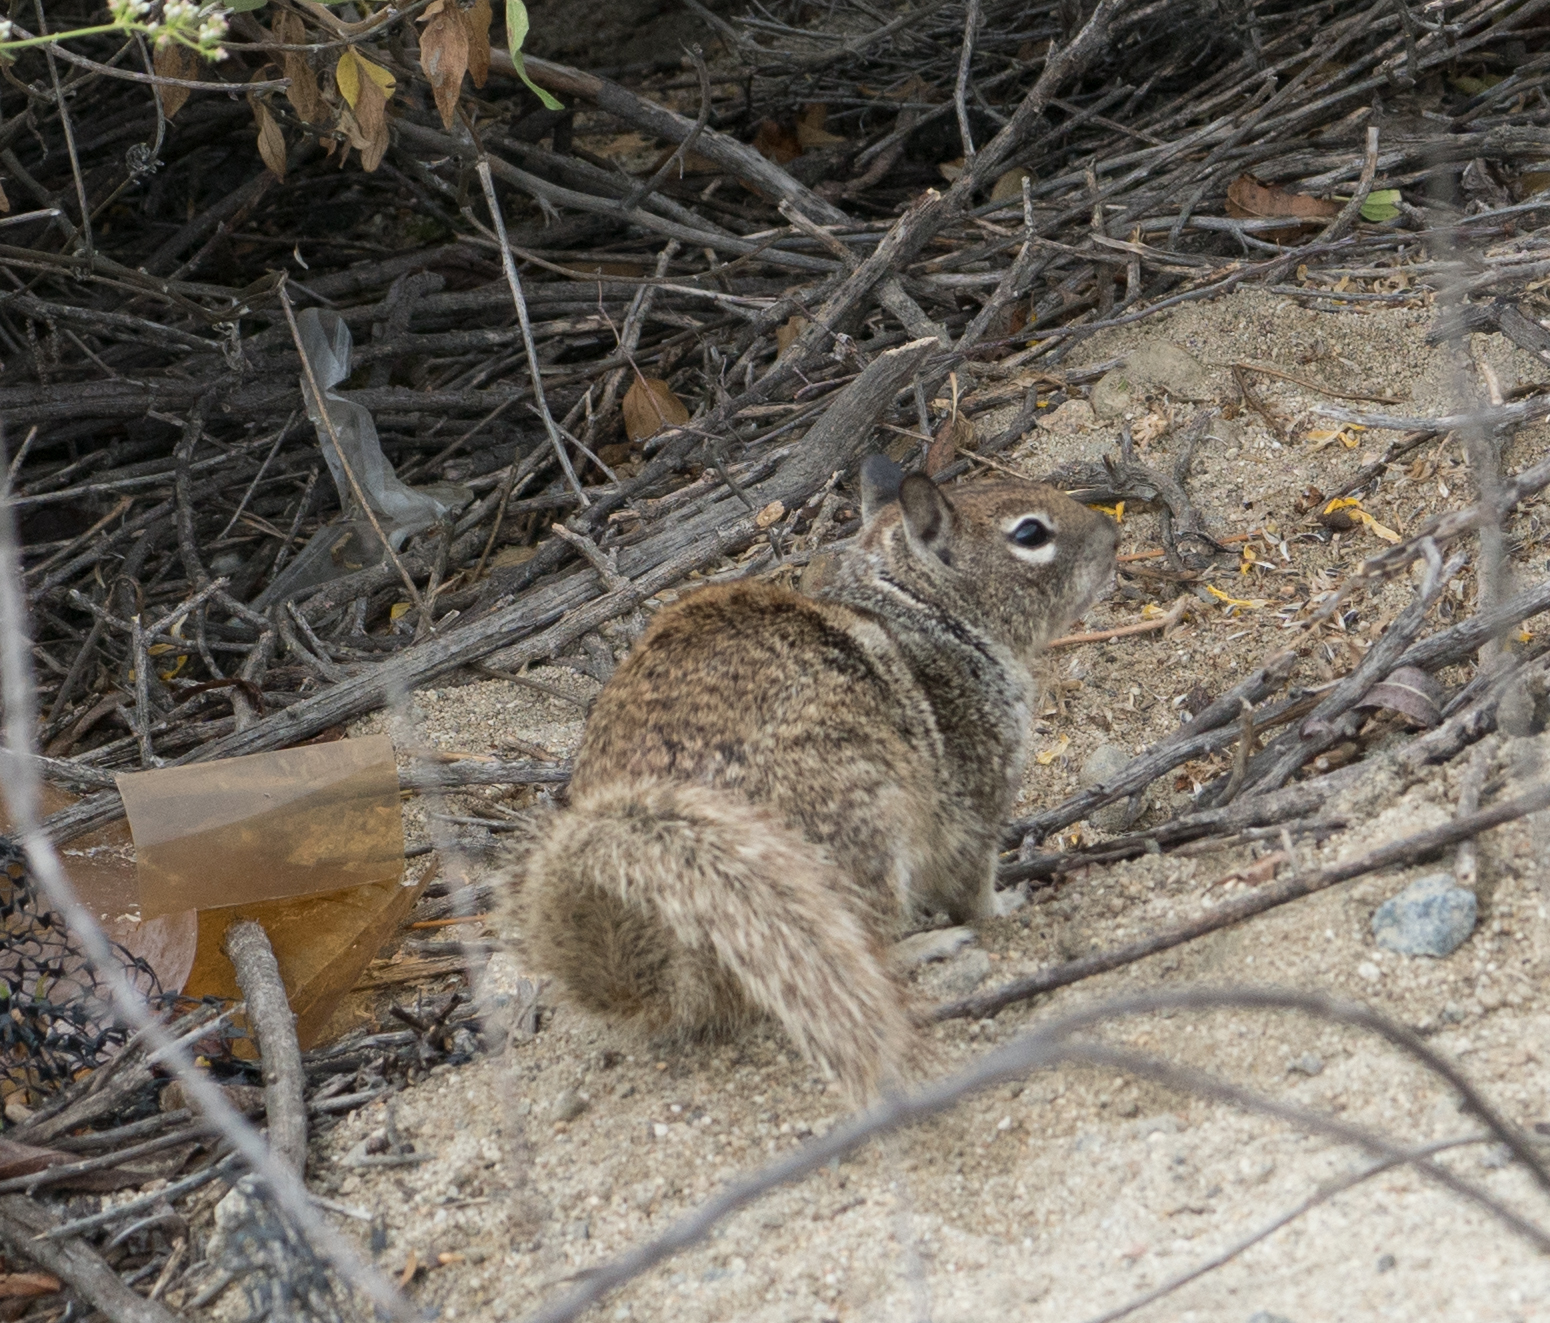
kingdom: Animalia
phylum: Chordata
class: Mammalia
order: Rodentia
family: Sciuridae
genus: Otospermophilus
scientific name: Otospermophilus beecheyi
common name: California ground squirrel
